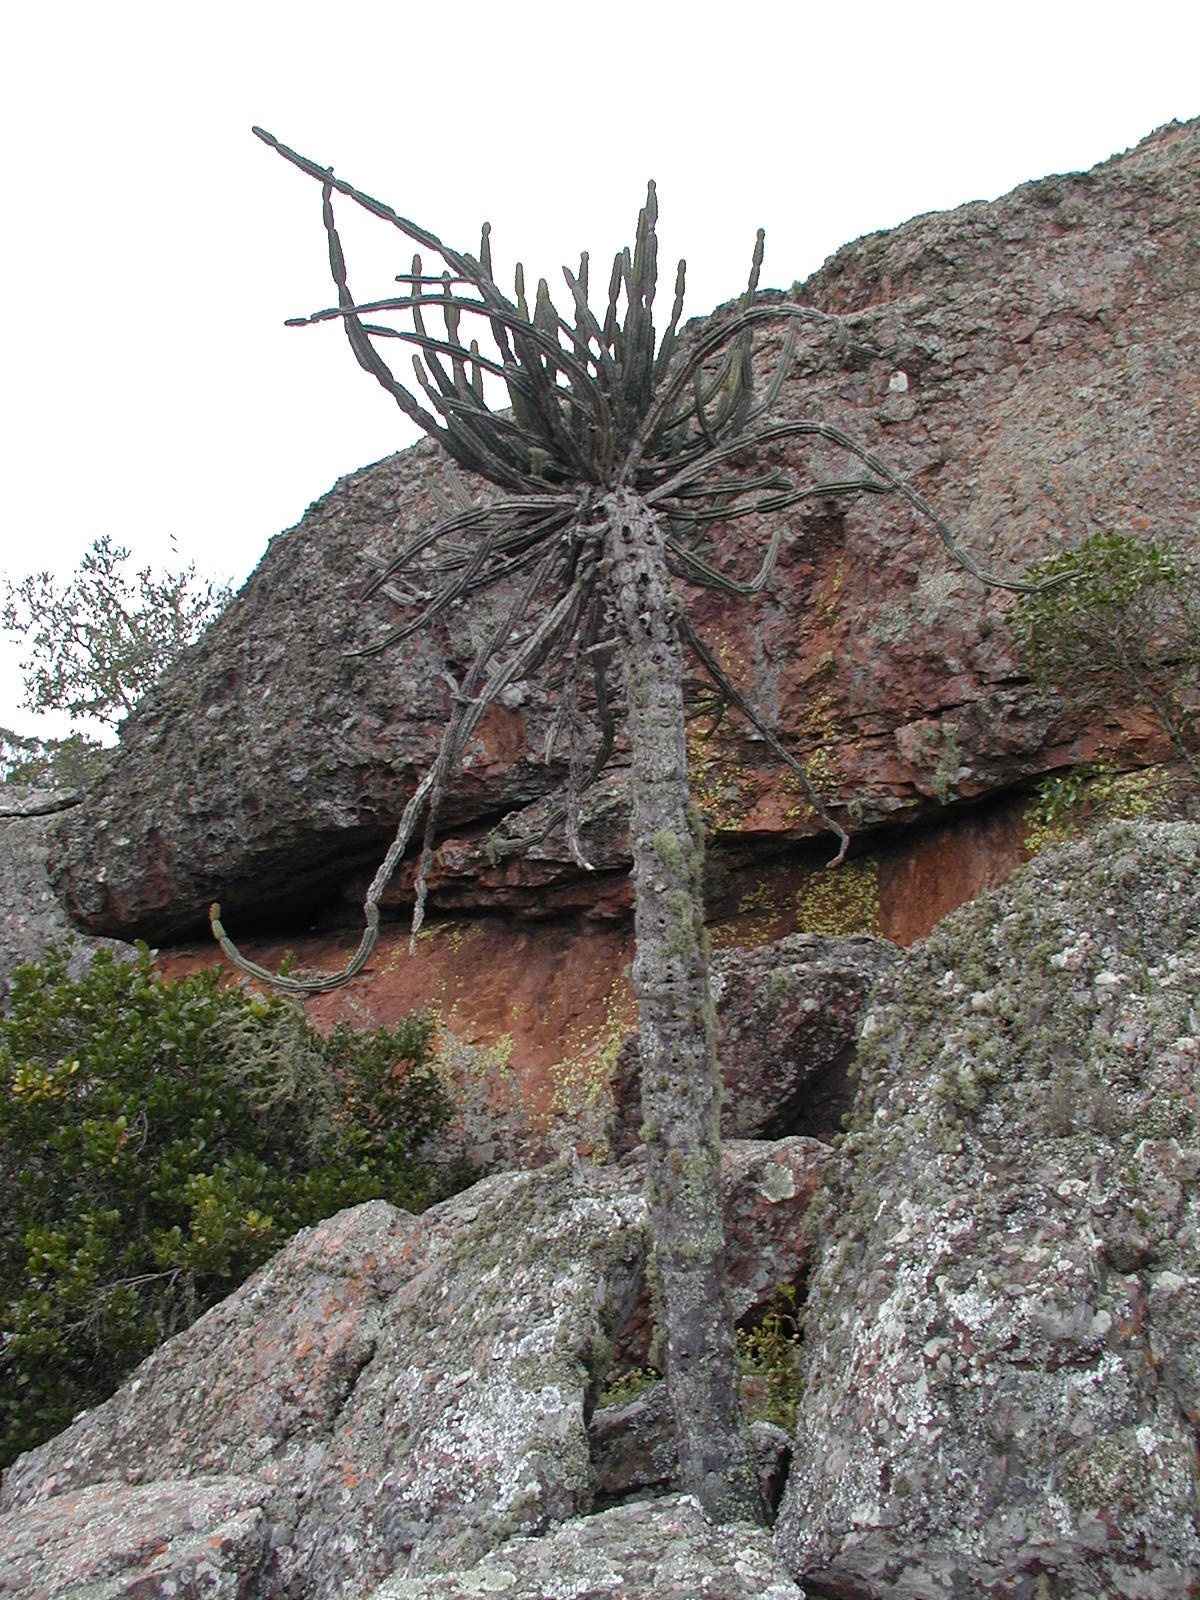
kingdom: Plantae
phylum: Tracheophyta
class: Magnoliopsida
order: Malpighiales
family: Euphorbiaceae
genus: Euphorbia
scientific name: Euphorbia zoutpansbergensis
